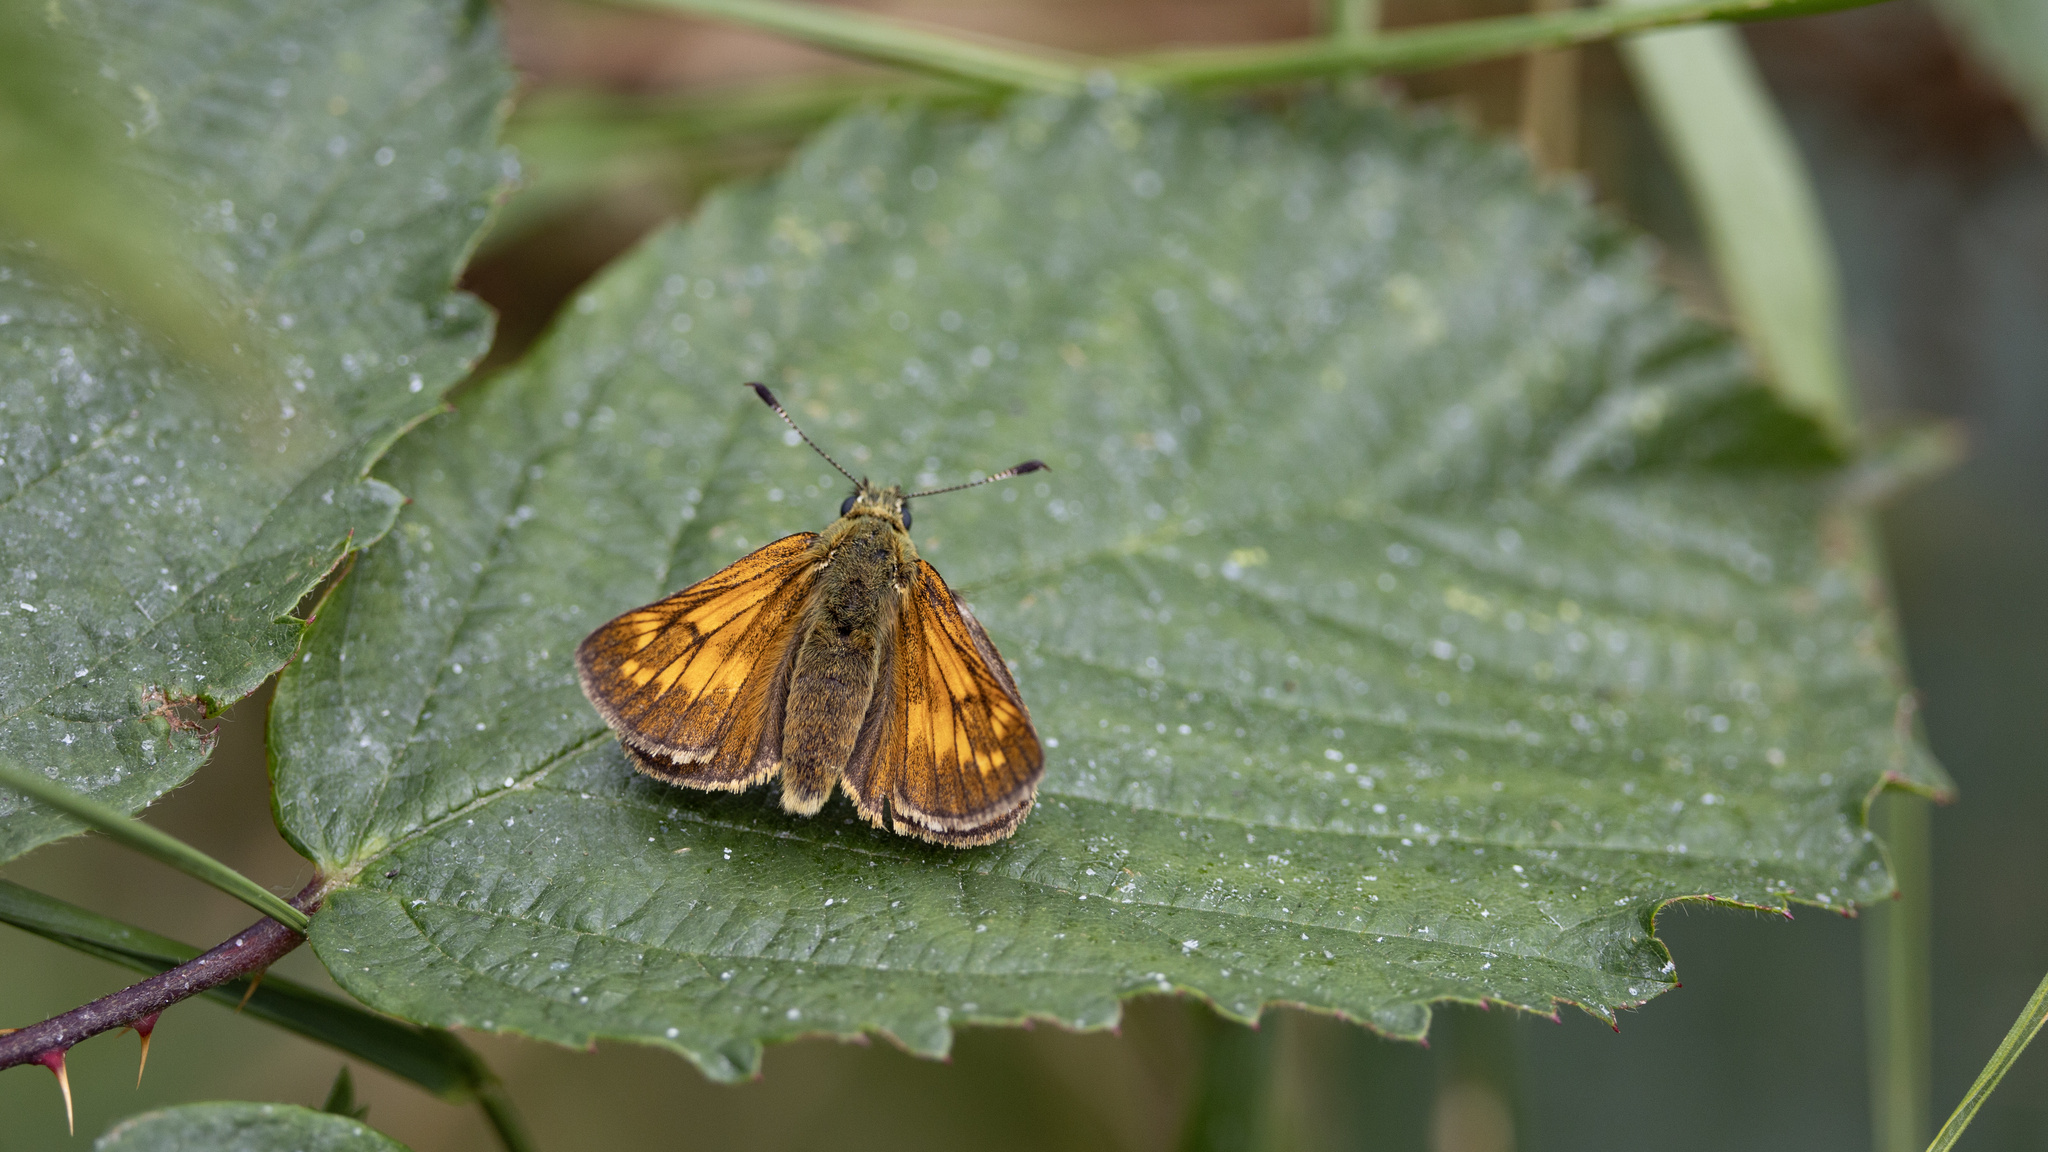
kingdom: Animalia
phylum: Arthropoda
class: Insecta
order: Lepidoptera
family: Hesperiidae
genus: Ochlodes
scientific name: Ochlodes venata
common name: Large skipper
